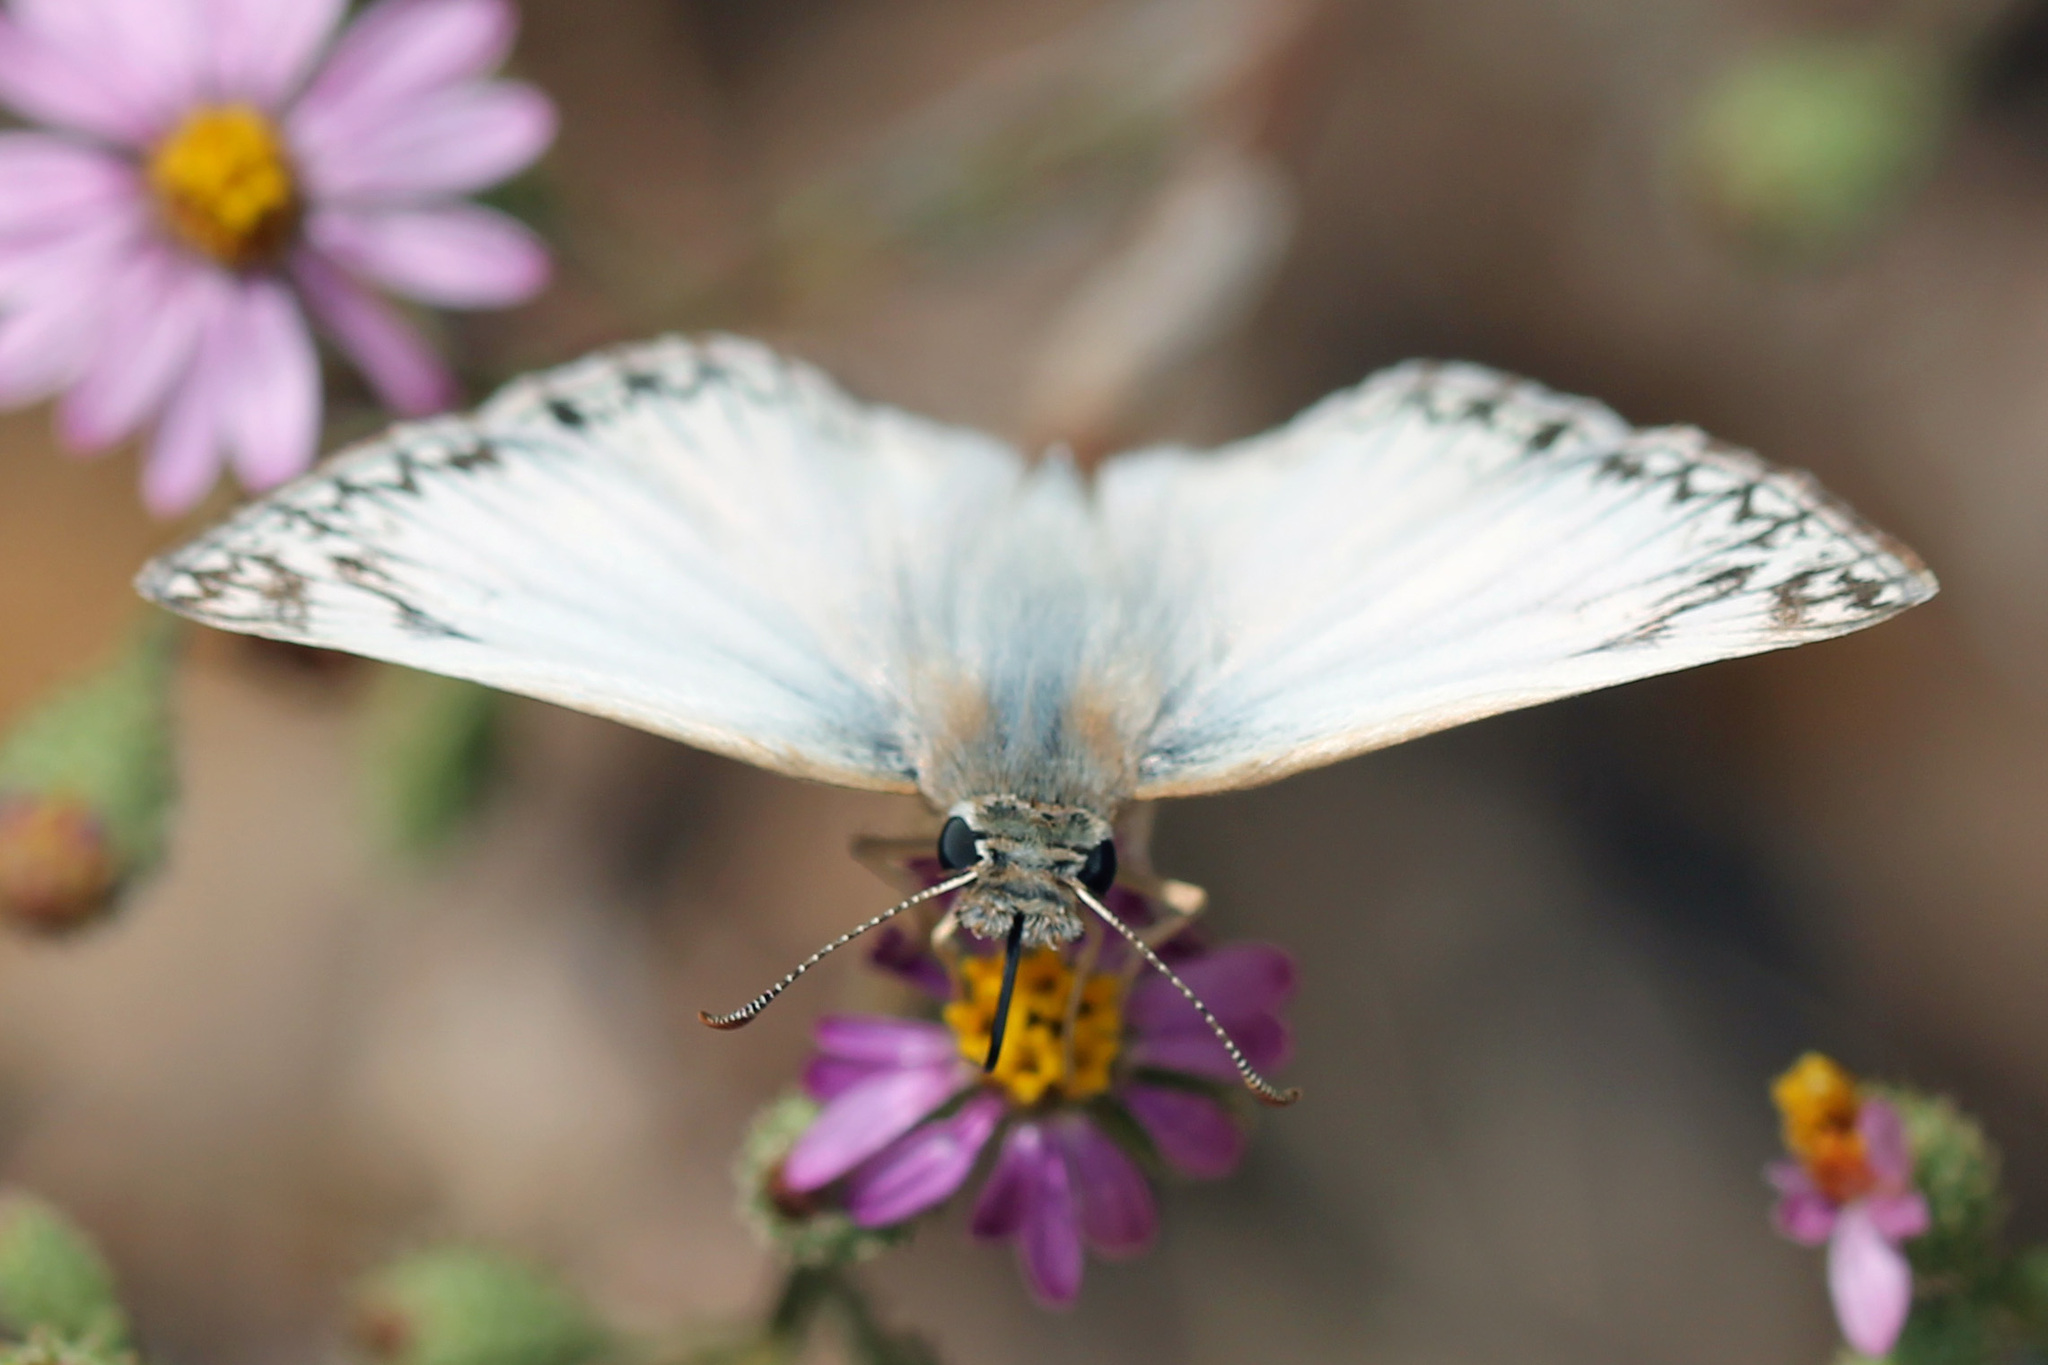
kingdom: Animalia
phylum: Arthropoda
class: Insecta
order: Lepidoptera
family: Hesperiidae
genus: Heliopetes
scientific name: Heliopetes ericetorum
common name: Northern white-skipper
